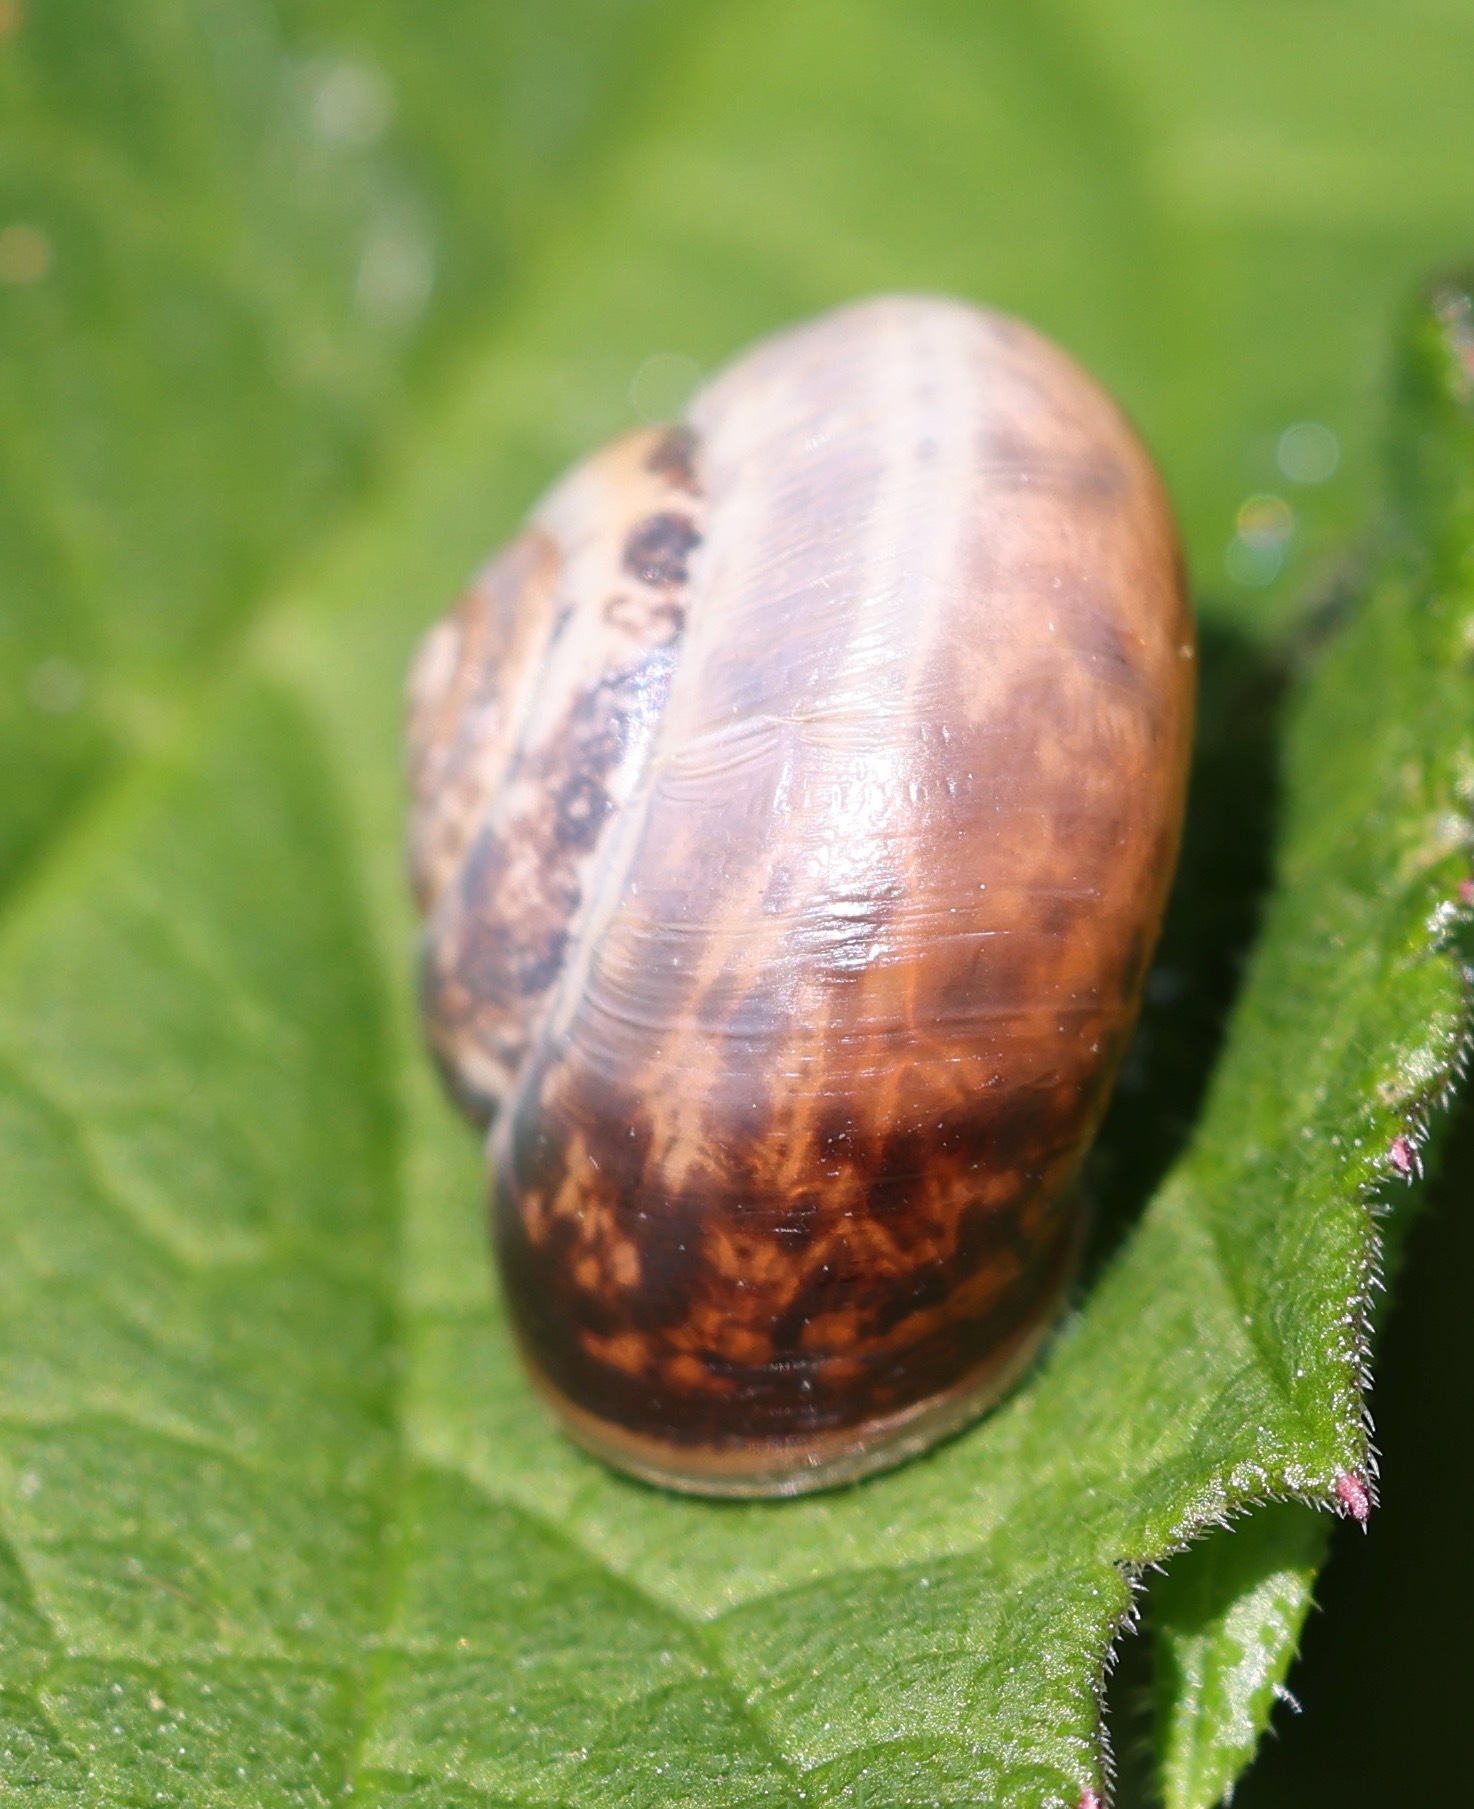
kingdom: Animalia
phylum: Mollusca
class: Gastropoda
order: Stylommatophora
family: Hygromiidae
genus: Monacha
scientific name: Monacha cantiana
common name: Kentish snail
